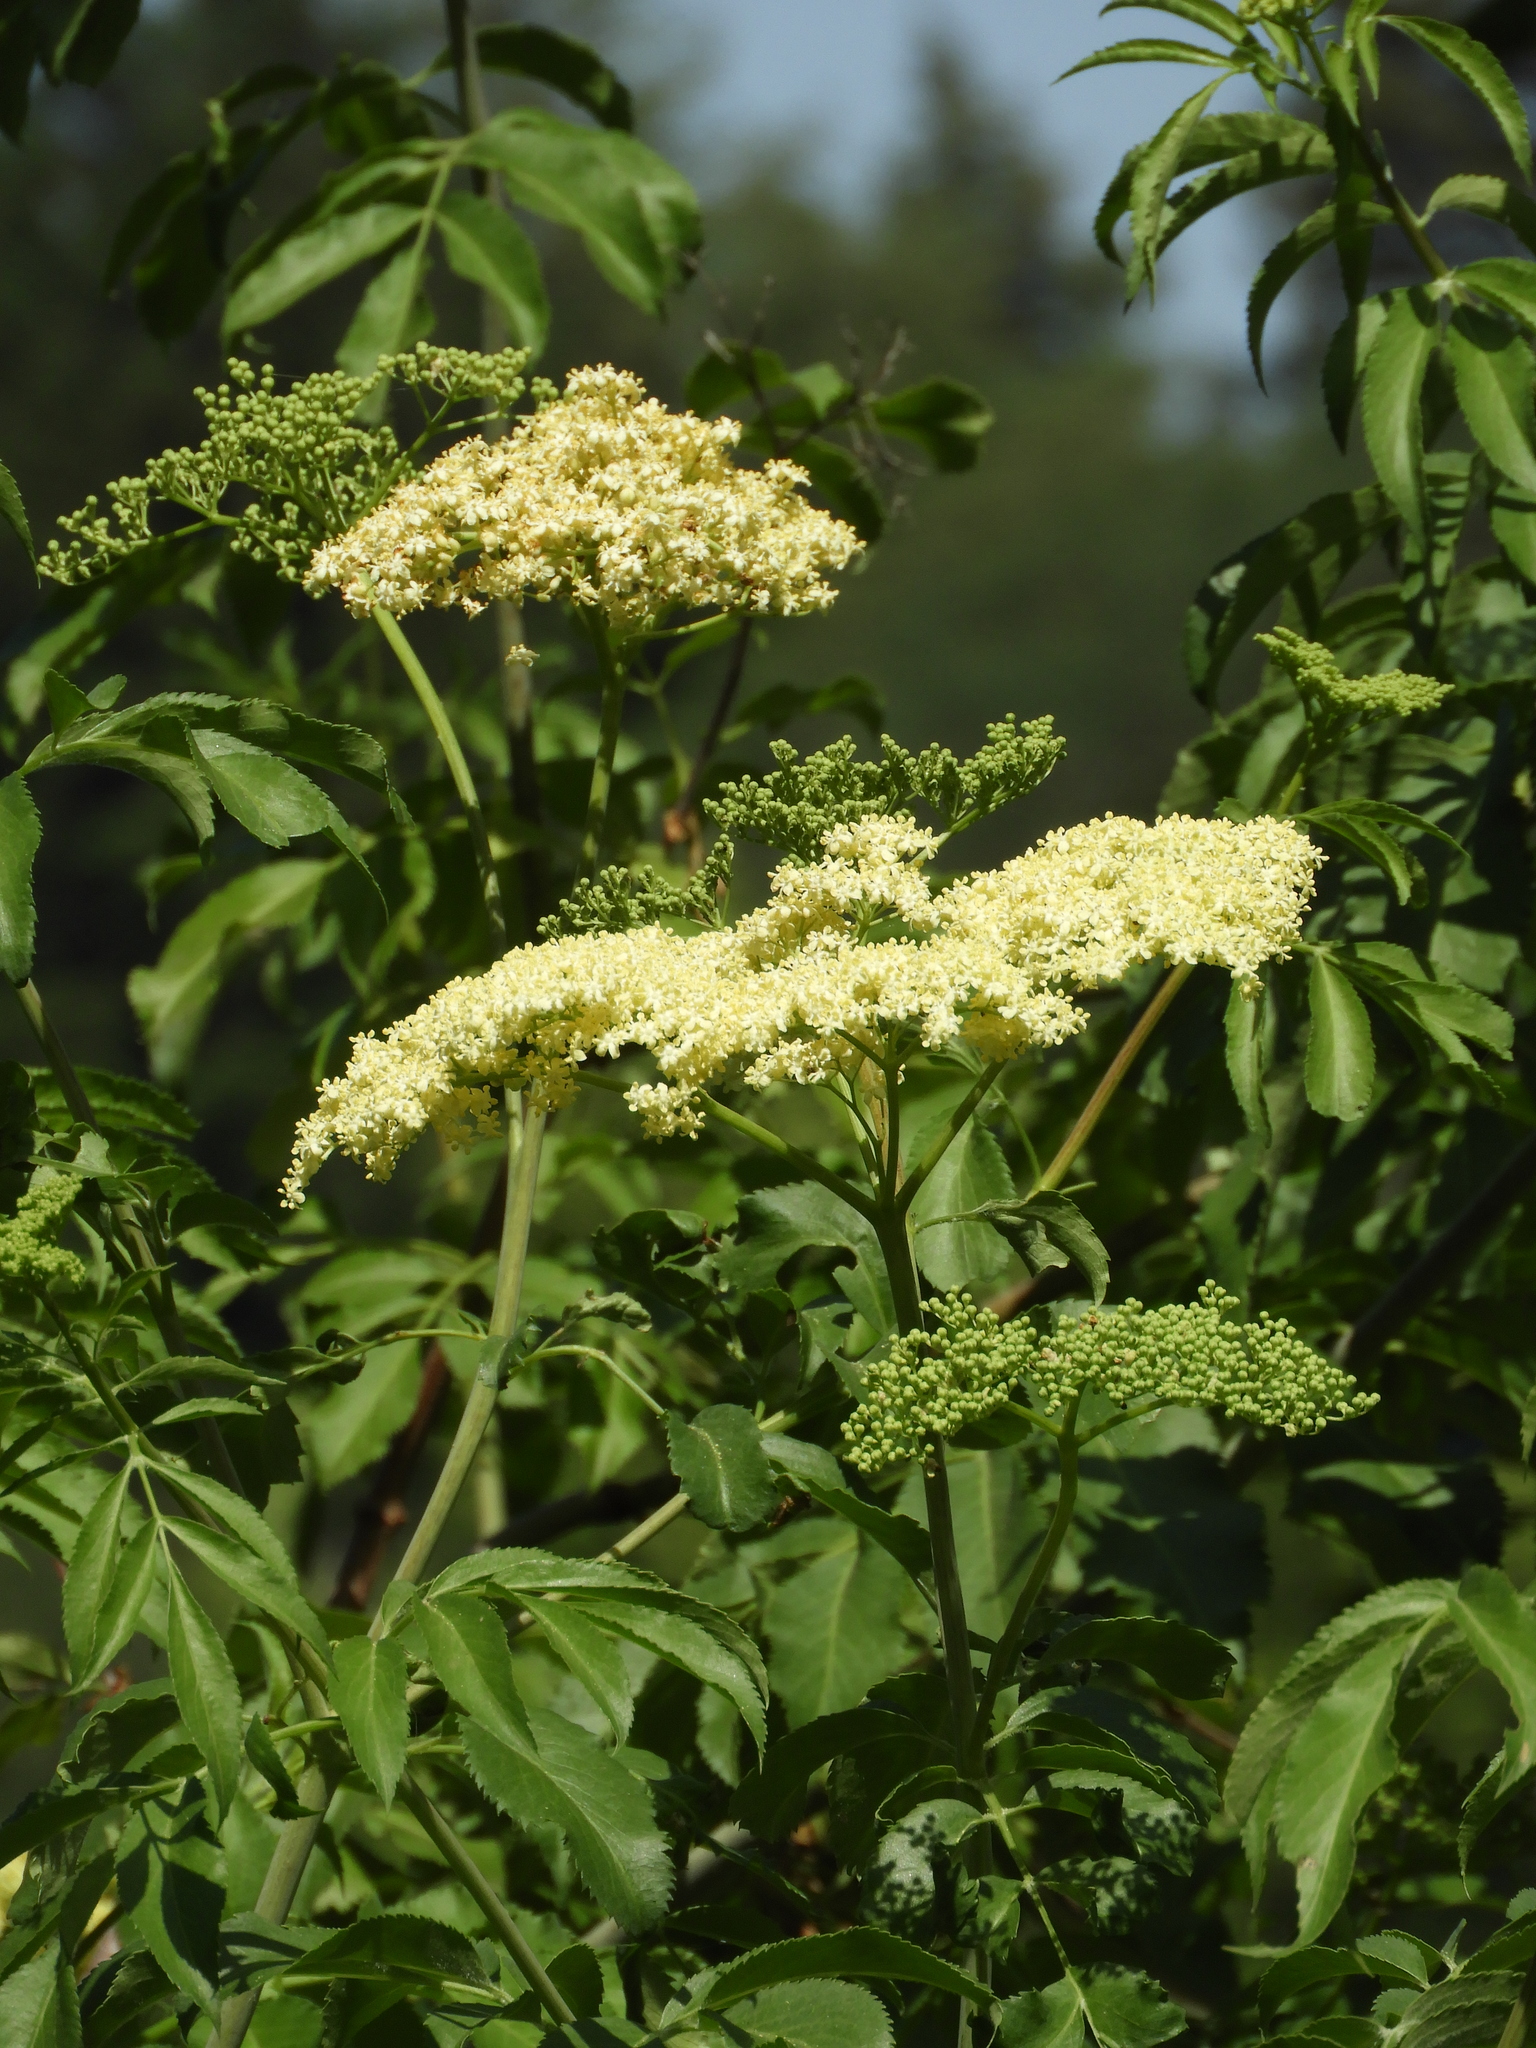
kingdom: Plantae
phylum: Tracheophyta
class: Magnoliopsida
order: Dipsacales
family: Viburnaceae
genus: Sambucus
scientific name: Sambucus cerulea
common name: Blue elder
